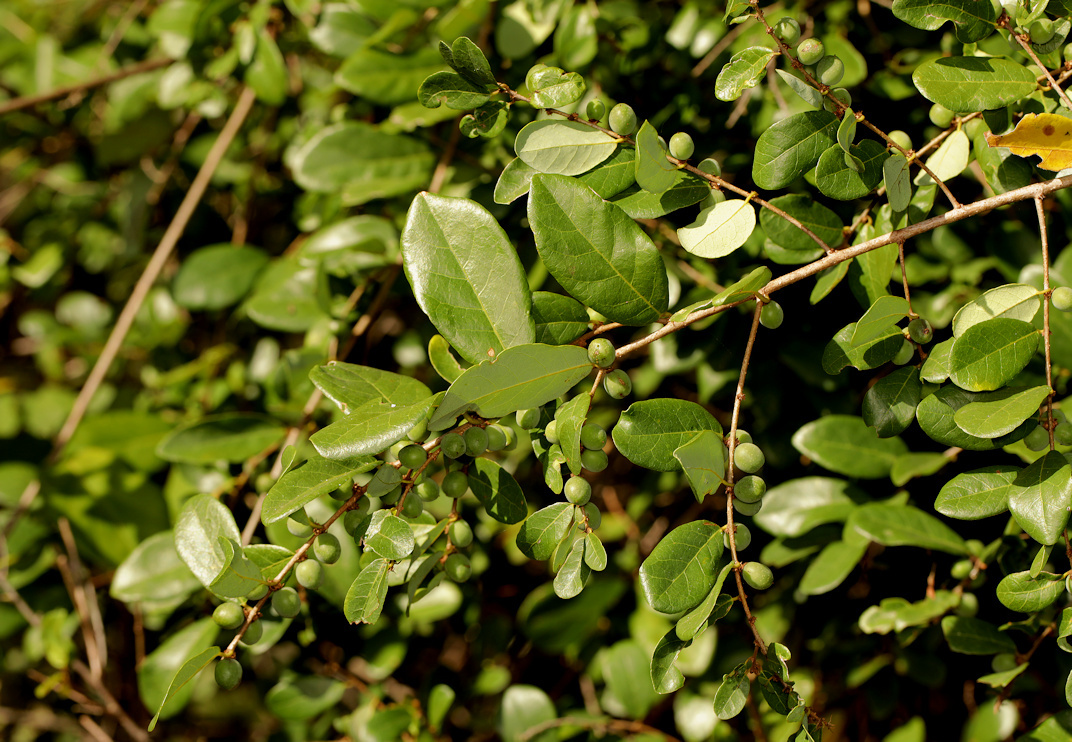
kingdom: Plantae
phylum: Tracheophyta
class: Magnoliopsida
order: Malpighiales
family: Phyllanthaceae
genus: Bridelia
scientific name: Bridelia cathartica
